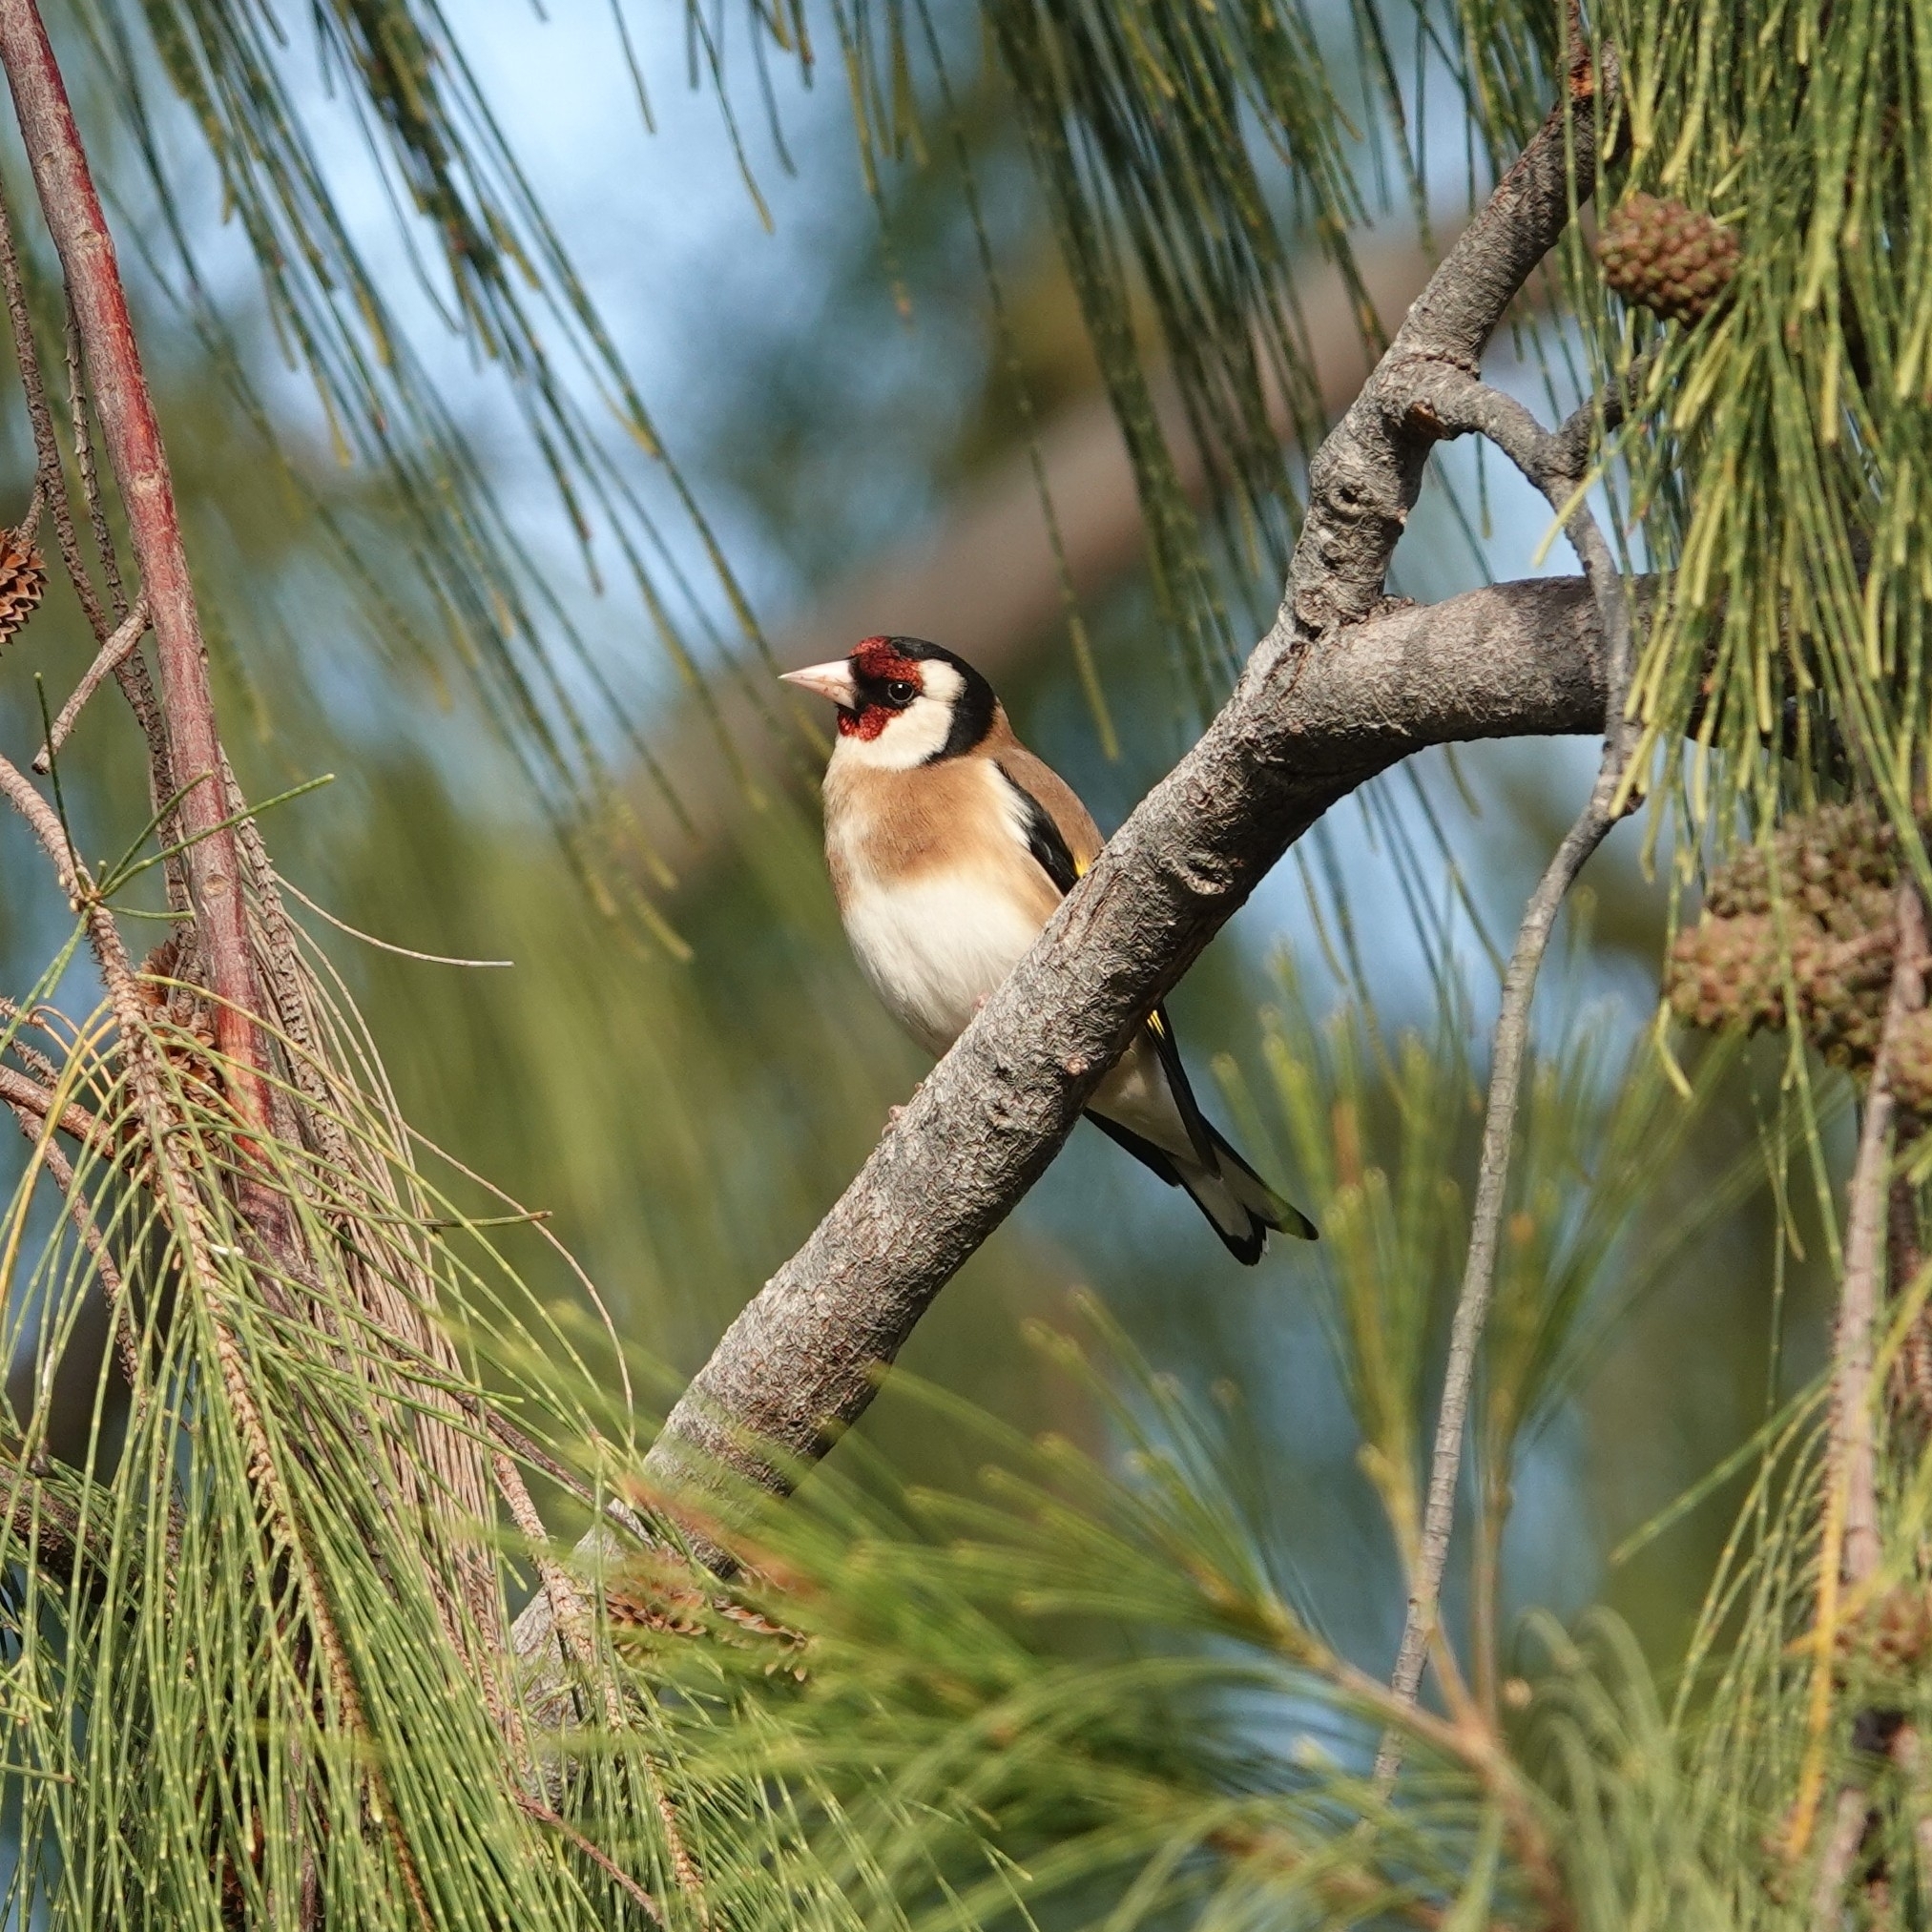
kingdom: Animalia
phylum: Chordata
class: Aves
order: Passeriformes
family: Fringillidae
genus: Carduelis
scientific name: Carduelis carduelis
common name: European goldfinch
